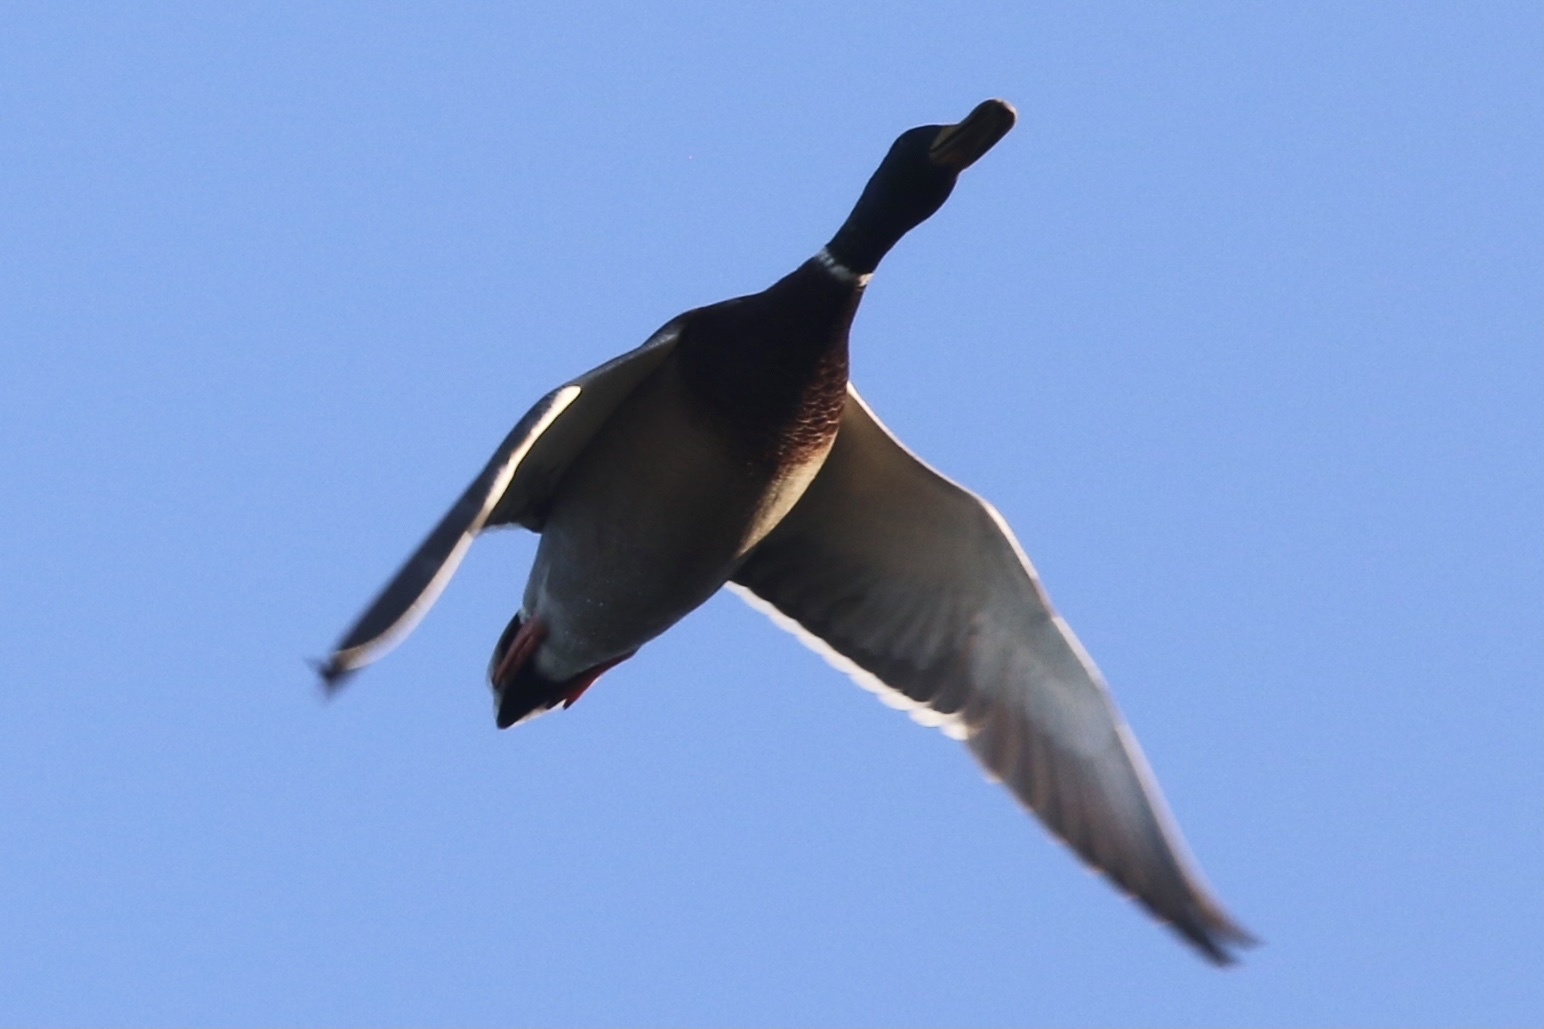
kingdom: Animalia
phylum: Chordata
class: Aves
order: Anseriformes
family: Anatidae
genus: Anas
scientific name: Anas platyrhynchos
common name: Mallard
